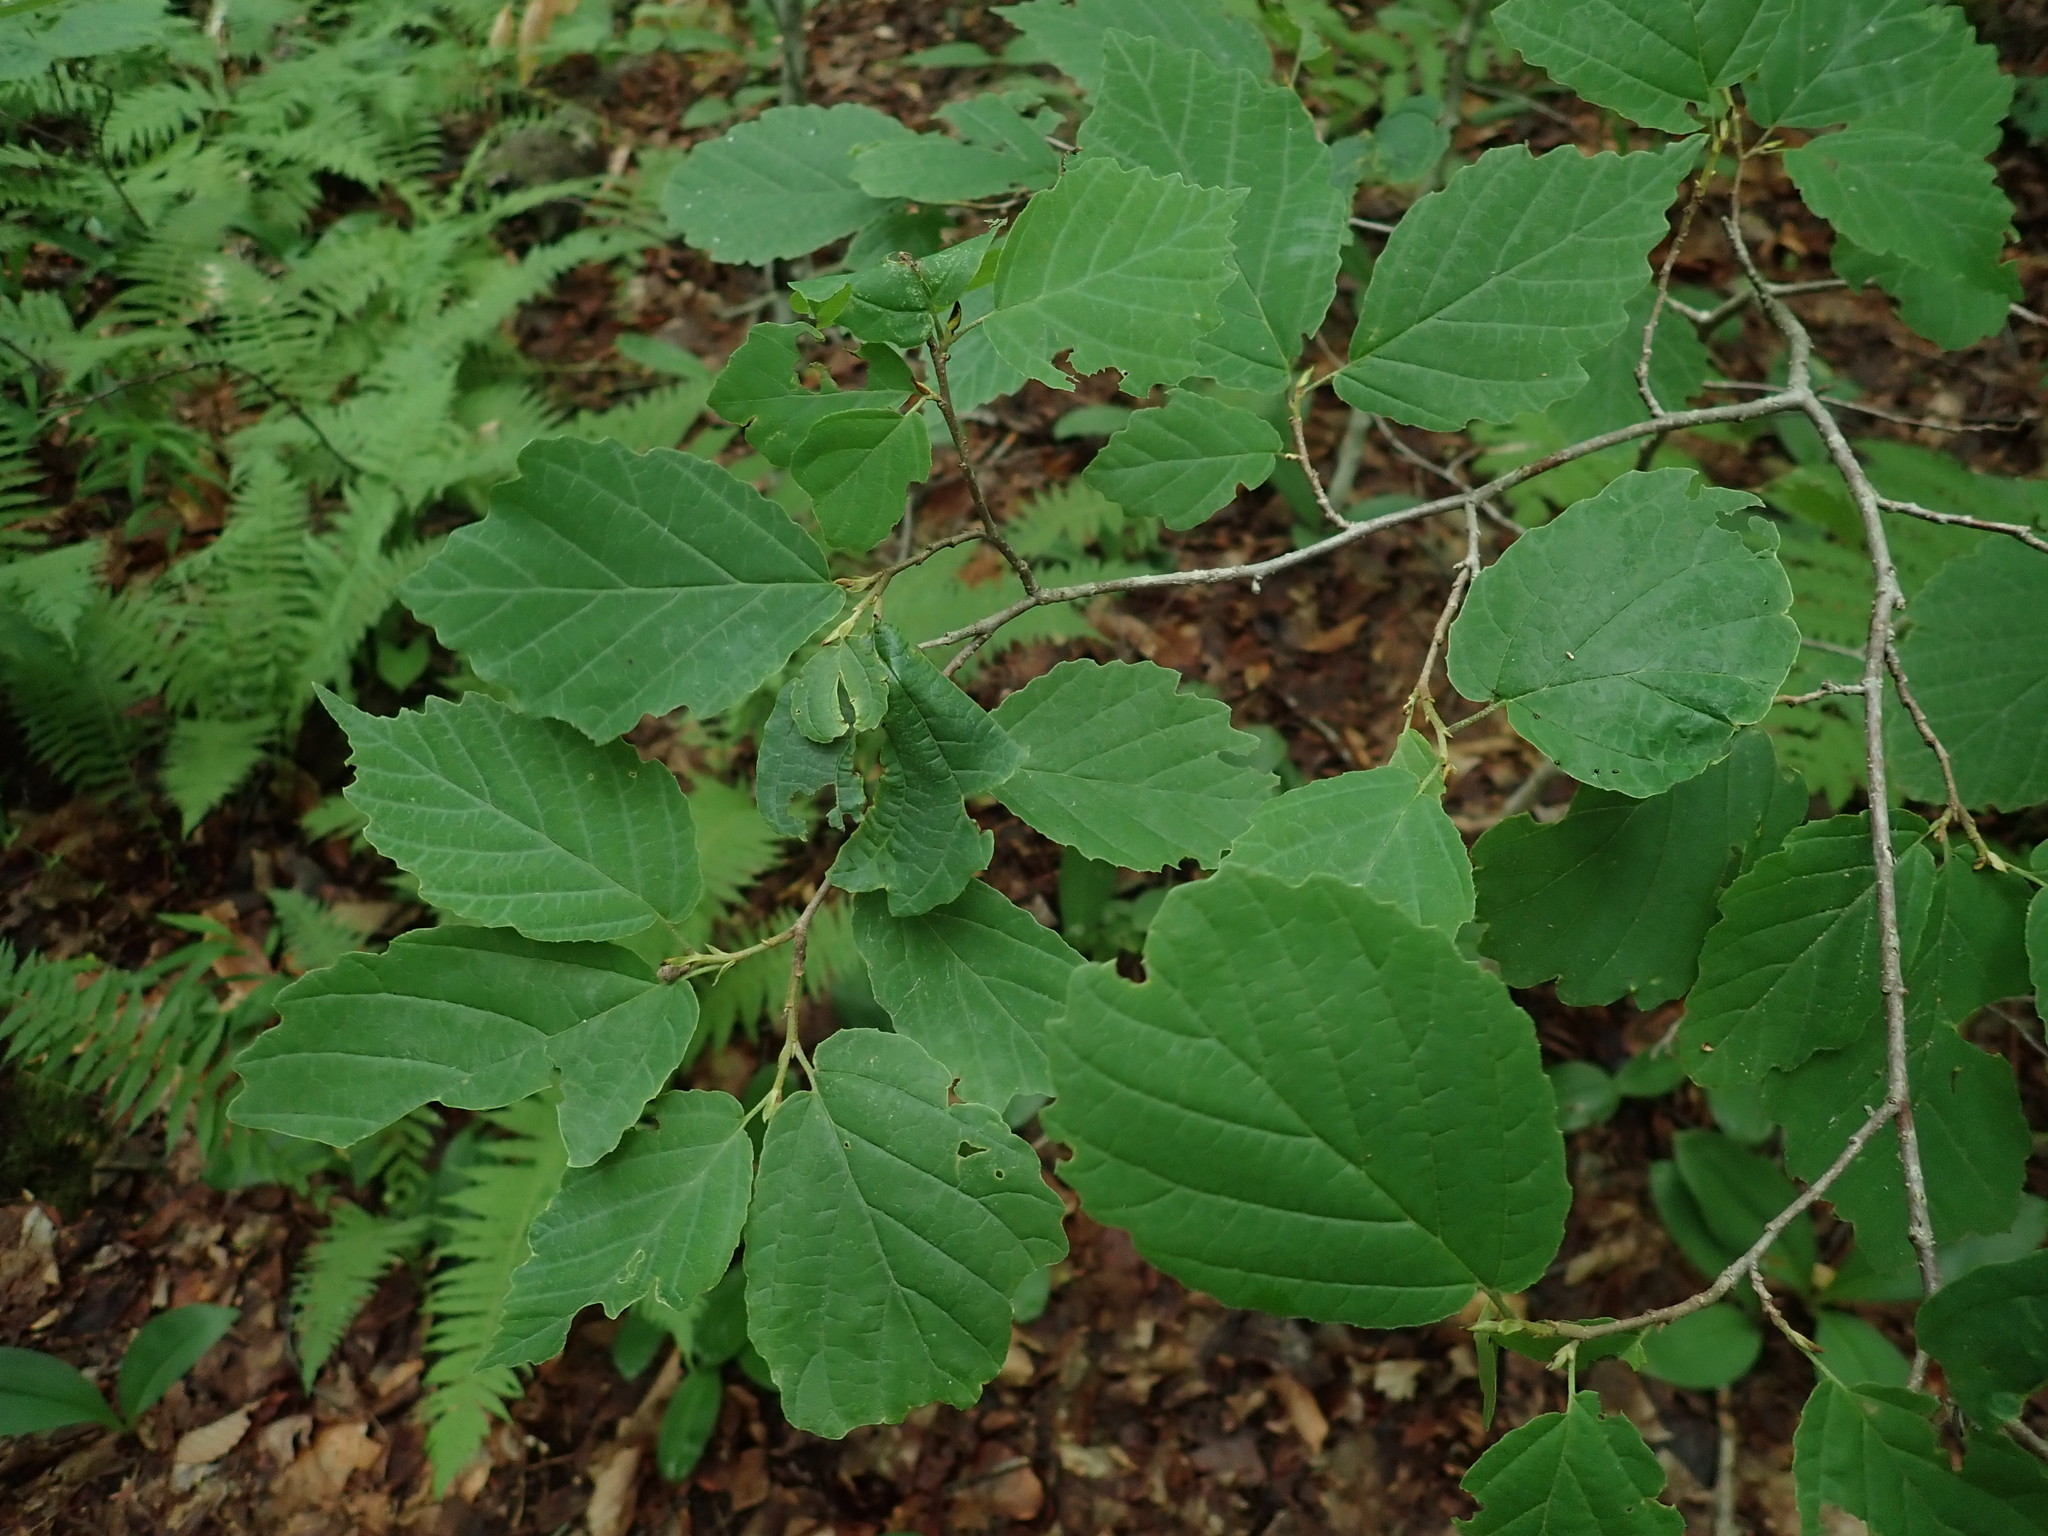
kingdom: Plantae
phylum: Tracheophyta
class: Magnoliopsida
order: Saxifragales
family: Hamamelidaceae
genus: Hamamelis
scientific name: Hamamelis virginiana
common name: Witch-hazel
